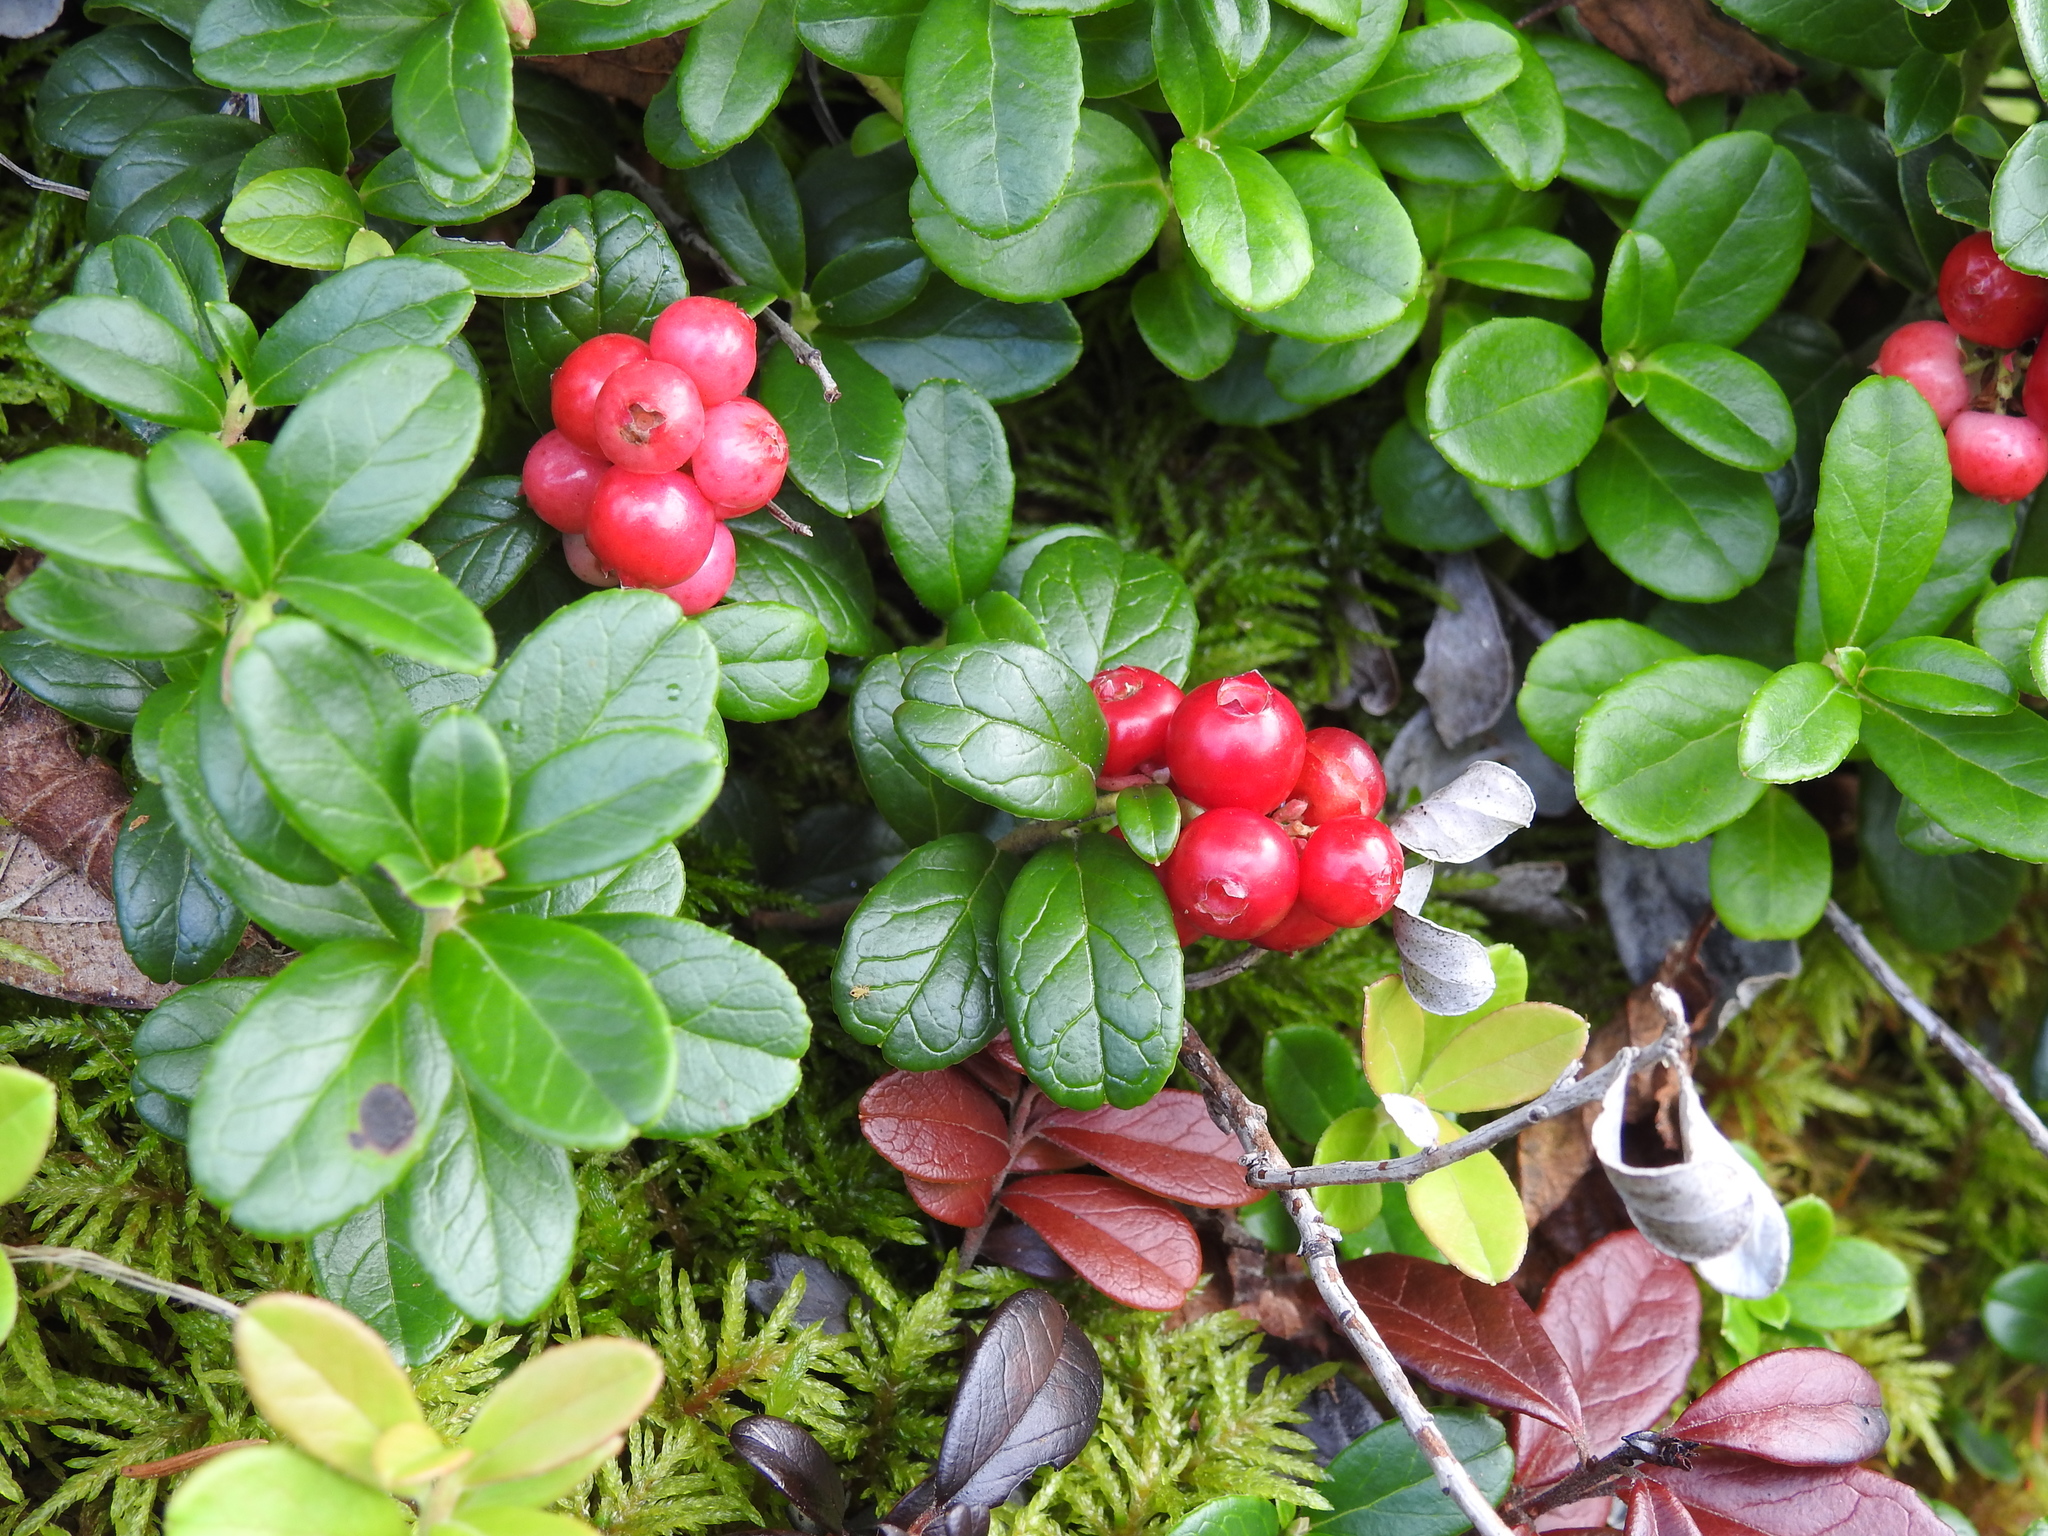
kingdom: Plantae
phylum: Tracheophyta
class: Magnoliopsida
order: Ericales
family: Ericaceae
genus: Vaccinium
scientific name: Vaccinium vitis-idaea
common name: Cowberry
